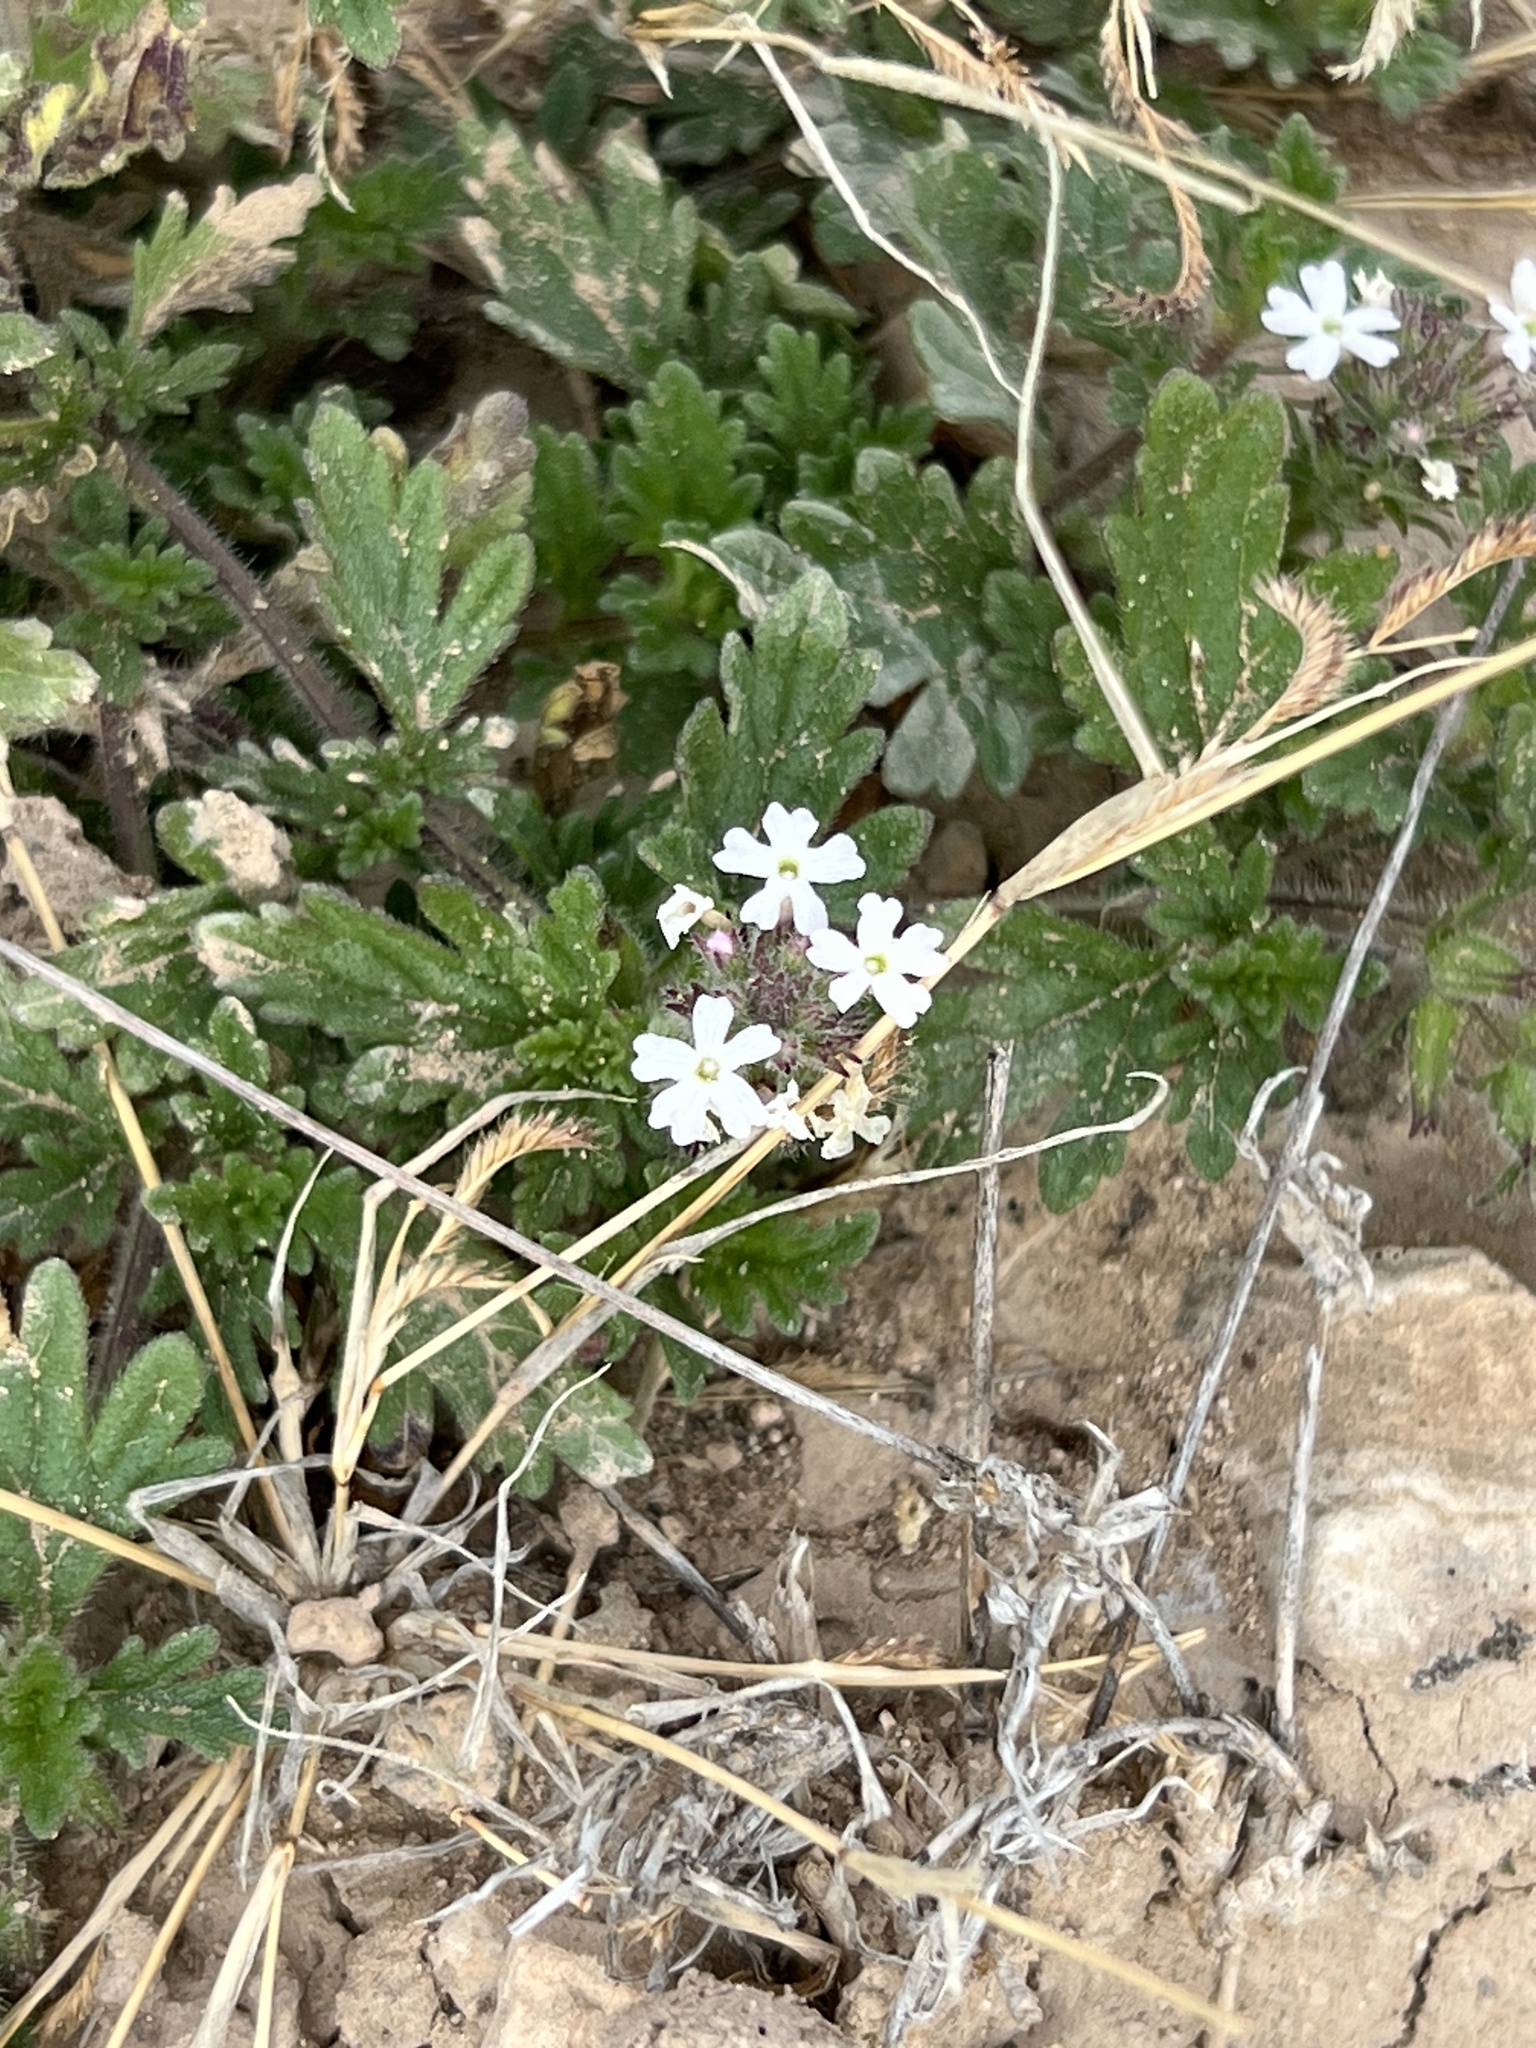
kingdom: Plantae
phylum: Tracheophyta
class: Magnoliopsida
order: Lamiales
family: Verbenaceae
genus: Verbena
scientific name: Verbena quadrangulata
